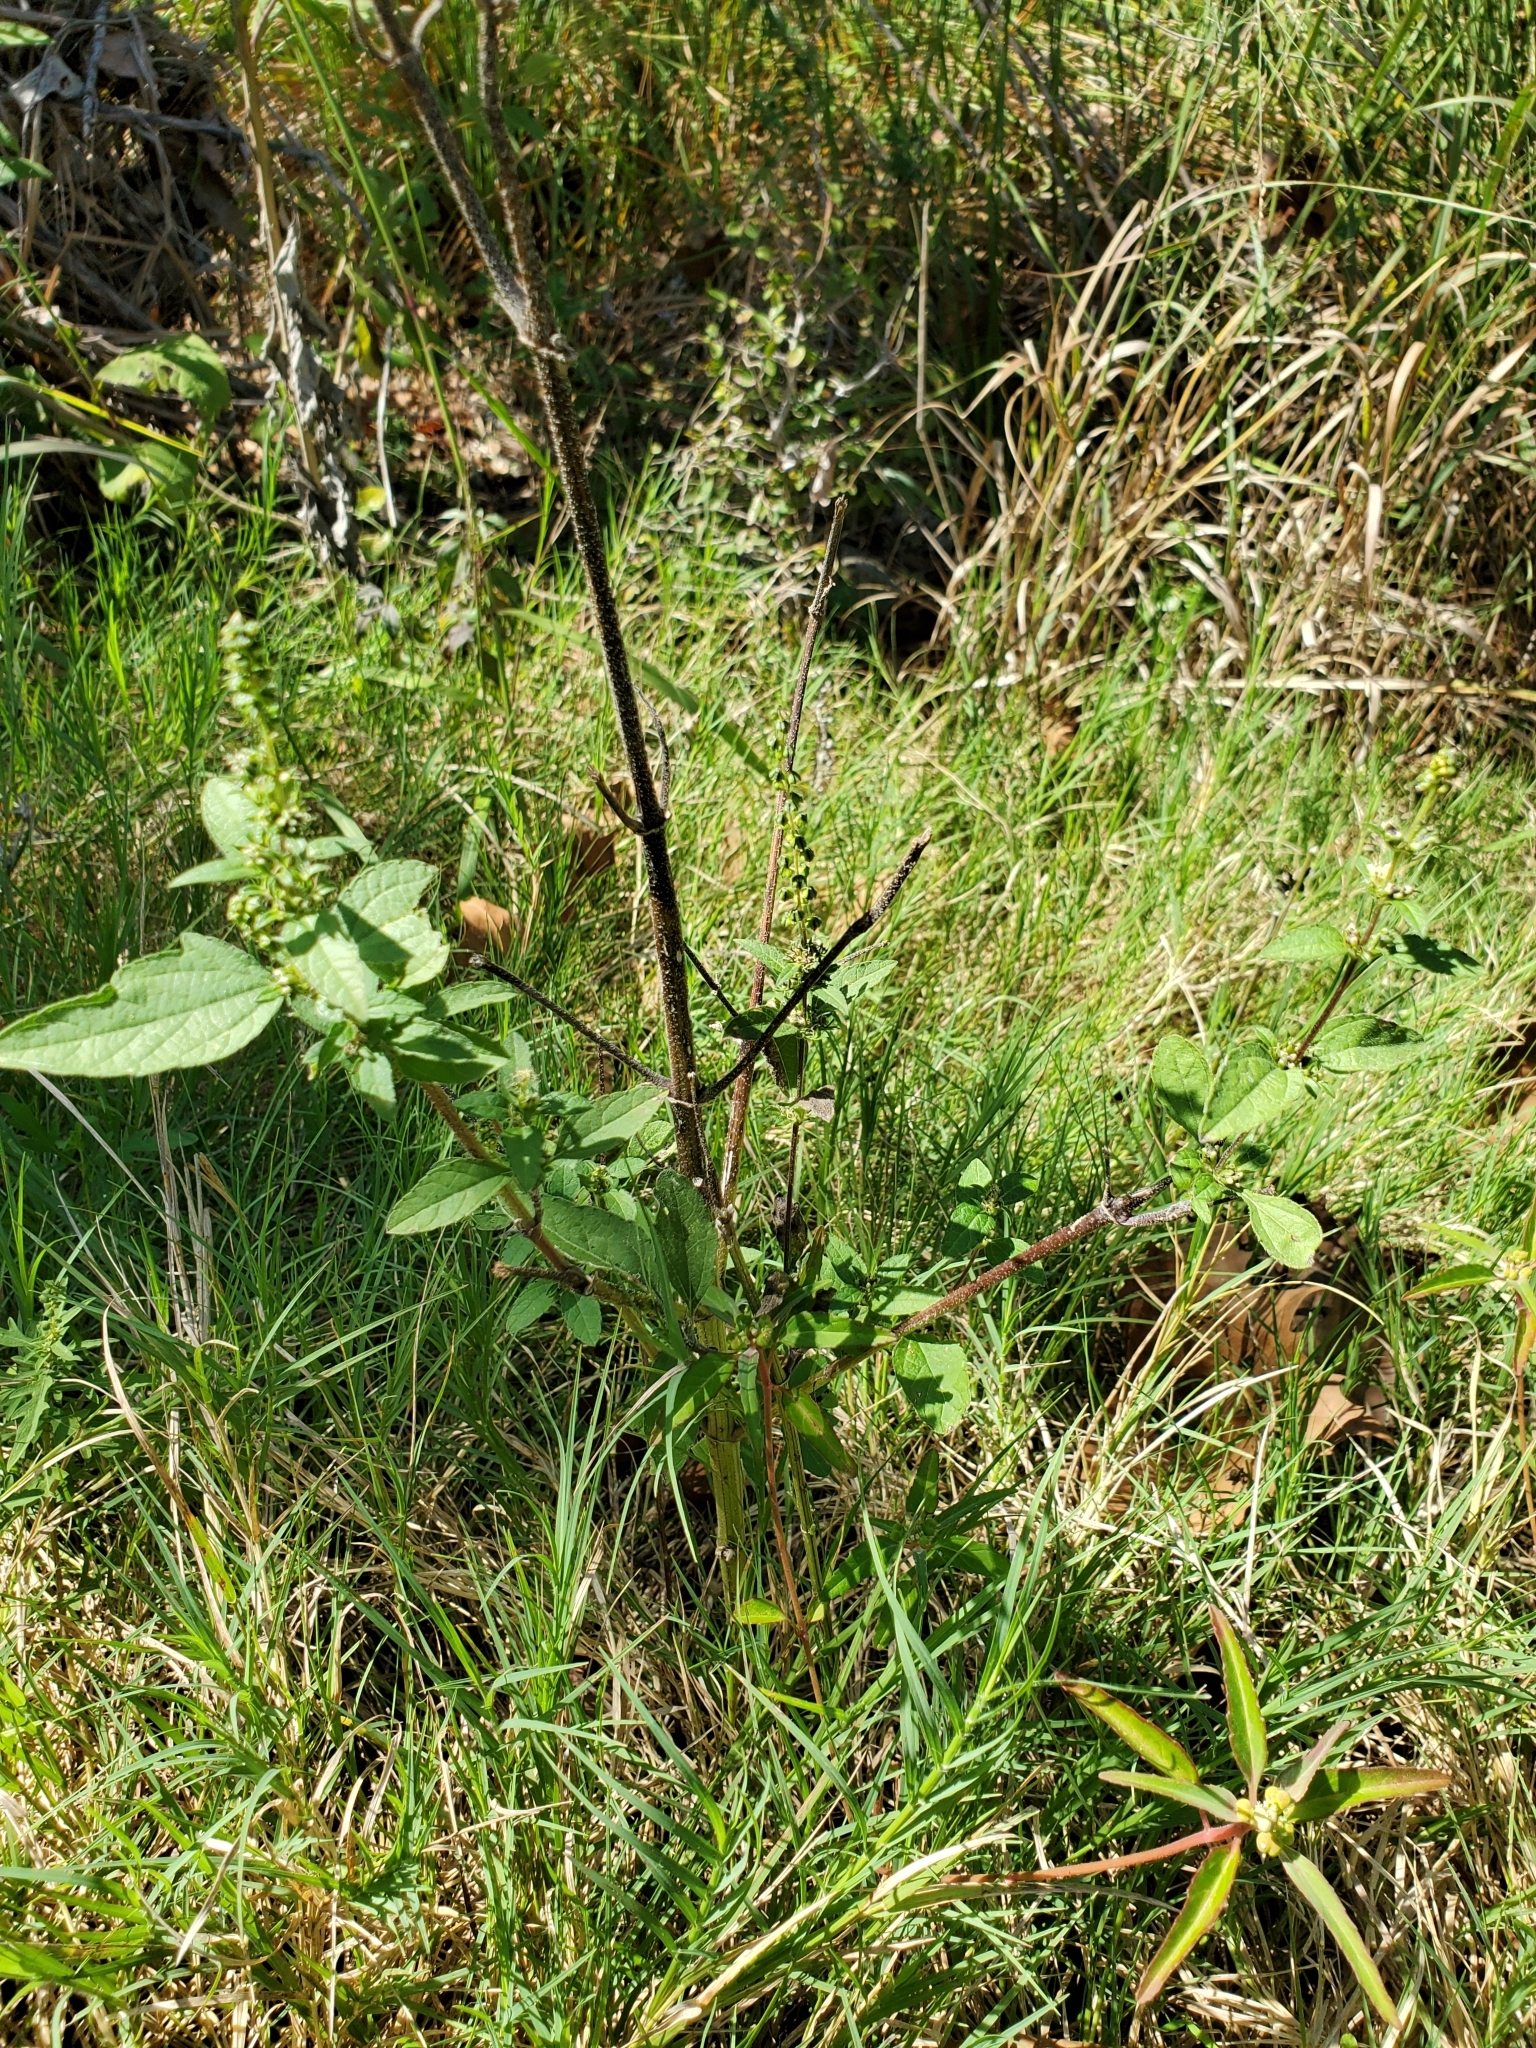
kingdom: Plantae
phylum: Tracheophyta
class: Magnoliopsida
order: Asterales
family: Asteraceae
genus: Ambrosia
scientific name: Ambrosia trifida
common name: Giant ragweed
